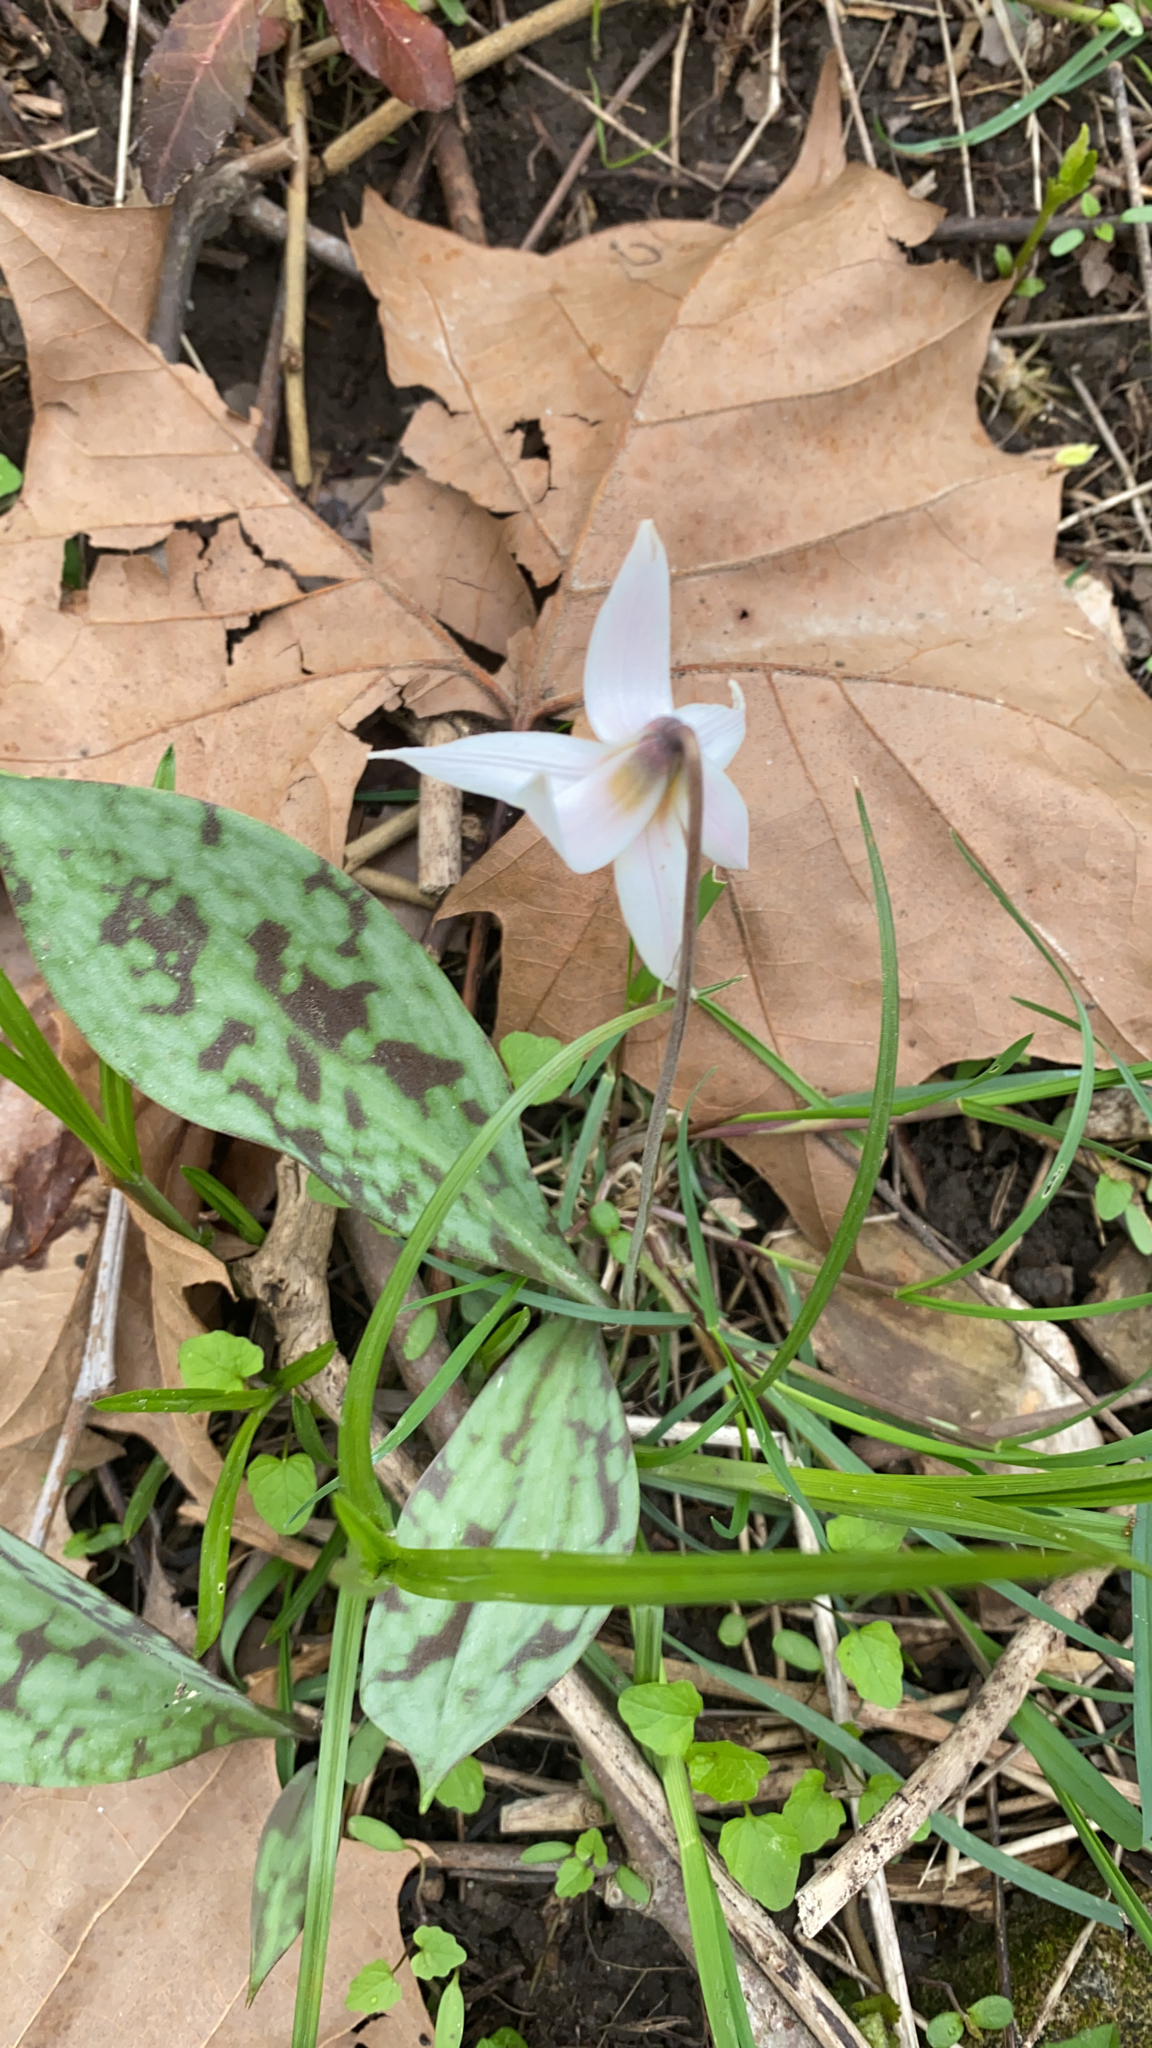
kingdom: Plantae
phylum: Tracheophyta
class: Liliopsida
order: Liliales
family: Liliaceae
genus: Erythronium
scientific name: Erythronium albidum
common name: White trout-lily
